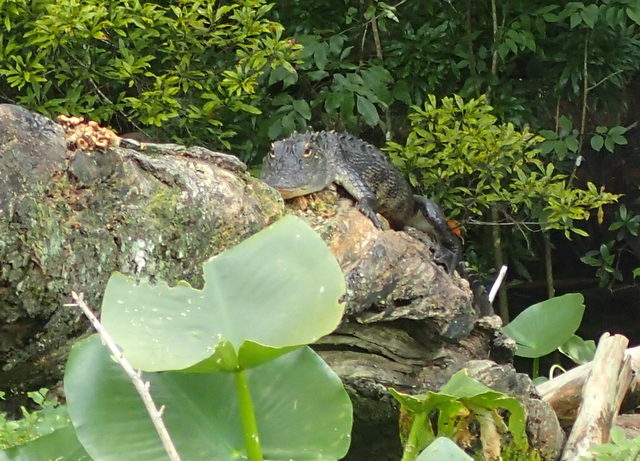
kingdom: Animalia
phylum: Chordata
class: Crocodylia
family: Alligatoridae
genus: Alligator
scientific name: Alligator mississippiensis
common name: American alligator
